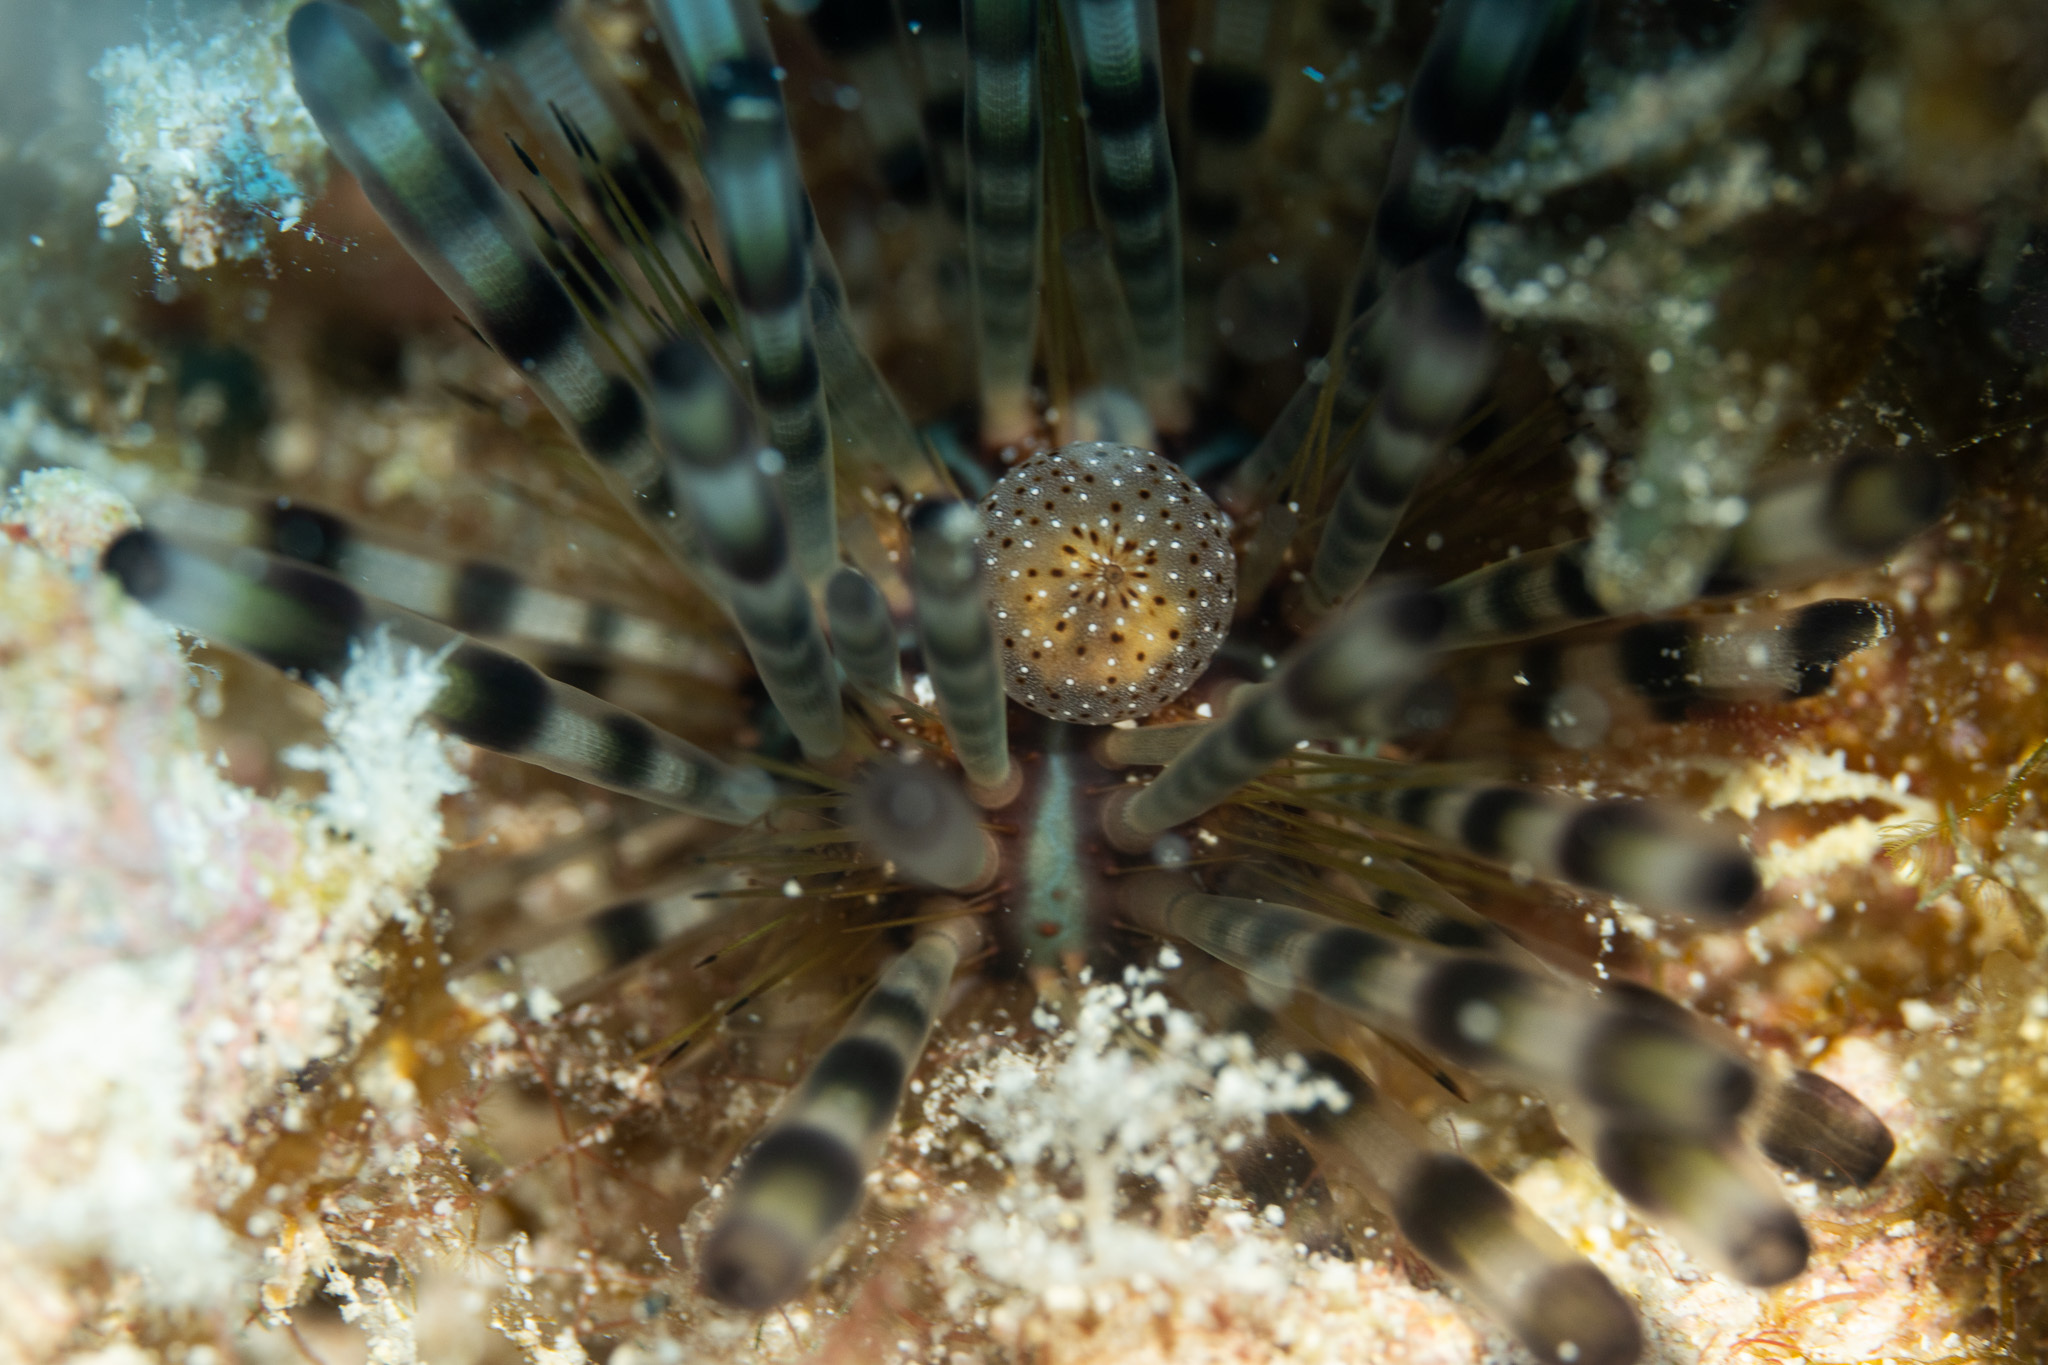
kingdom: Animalia
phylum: Echinodermata
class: Echinoidea
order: Diadematoida
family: Diadematidae
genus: Echinothrix
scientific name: Echinothrix calamaris
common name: Banded sea urchin
